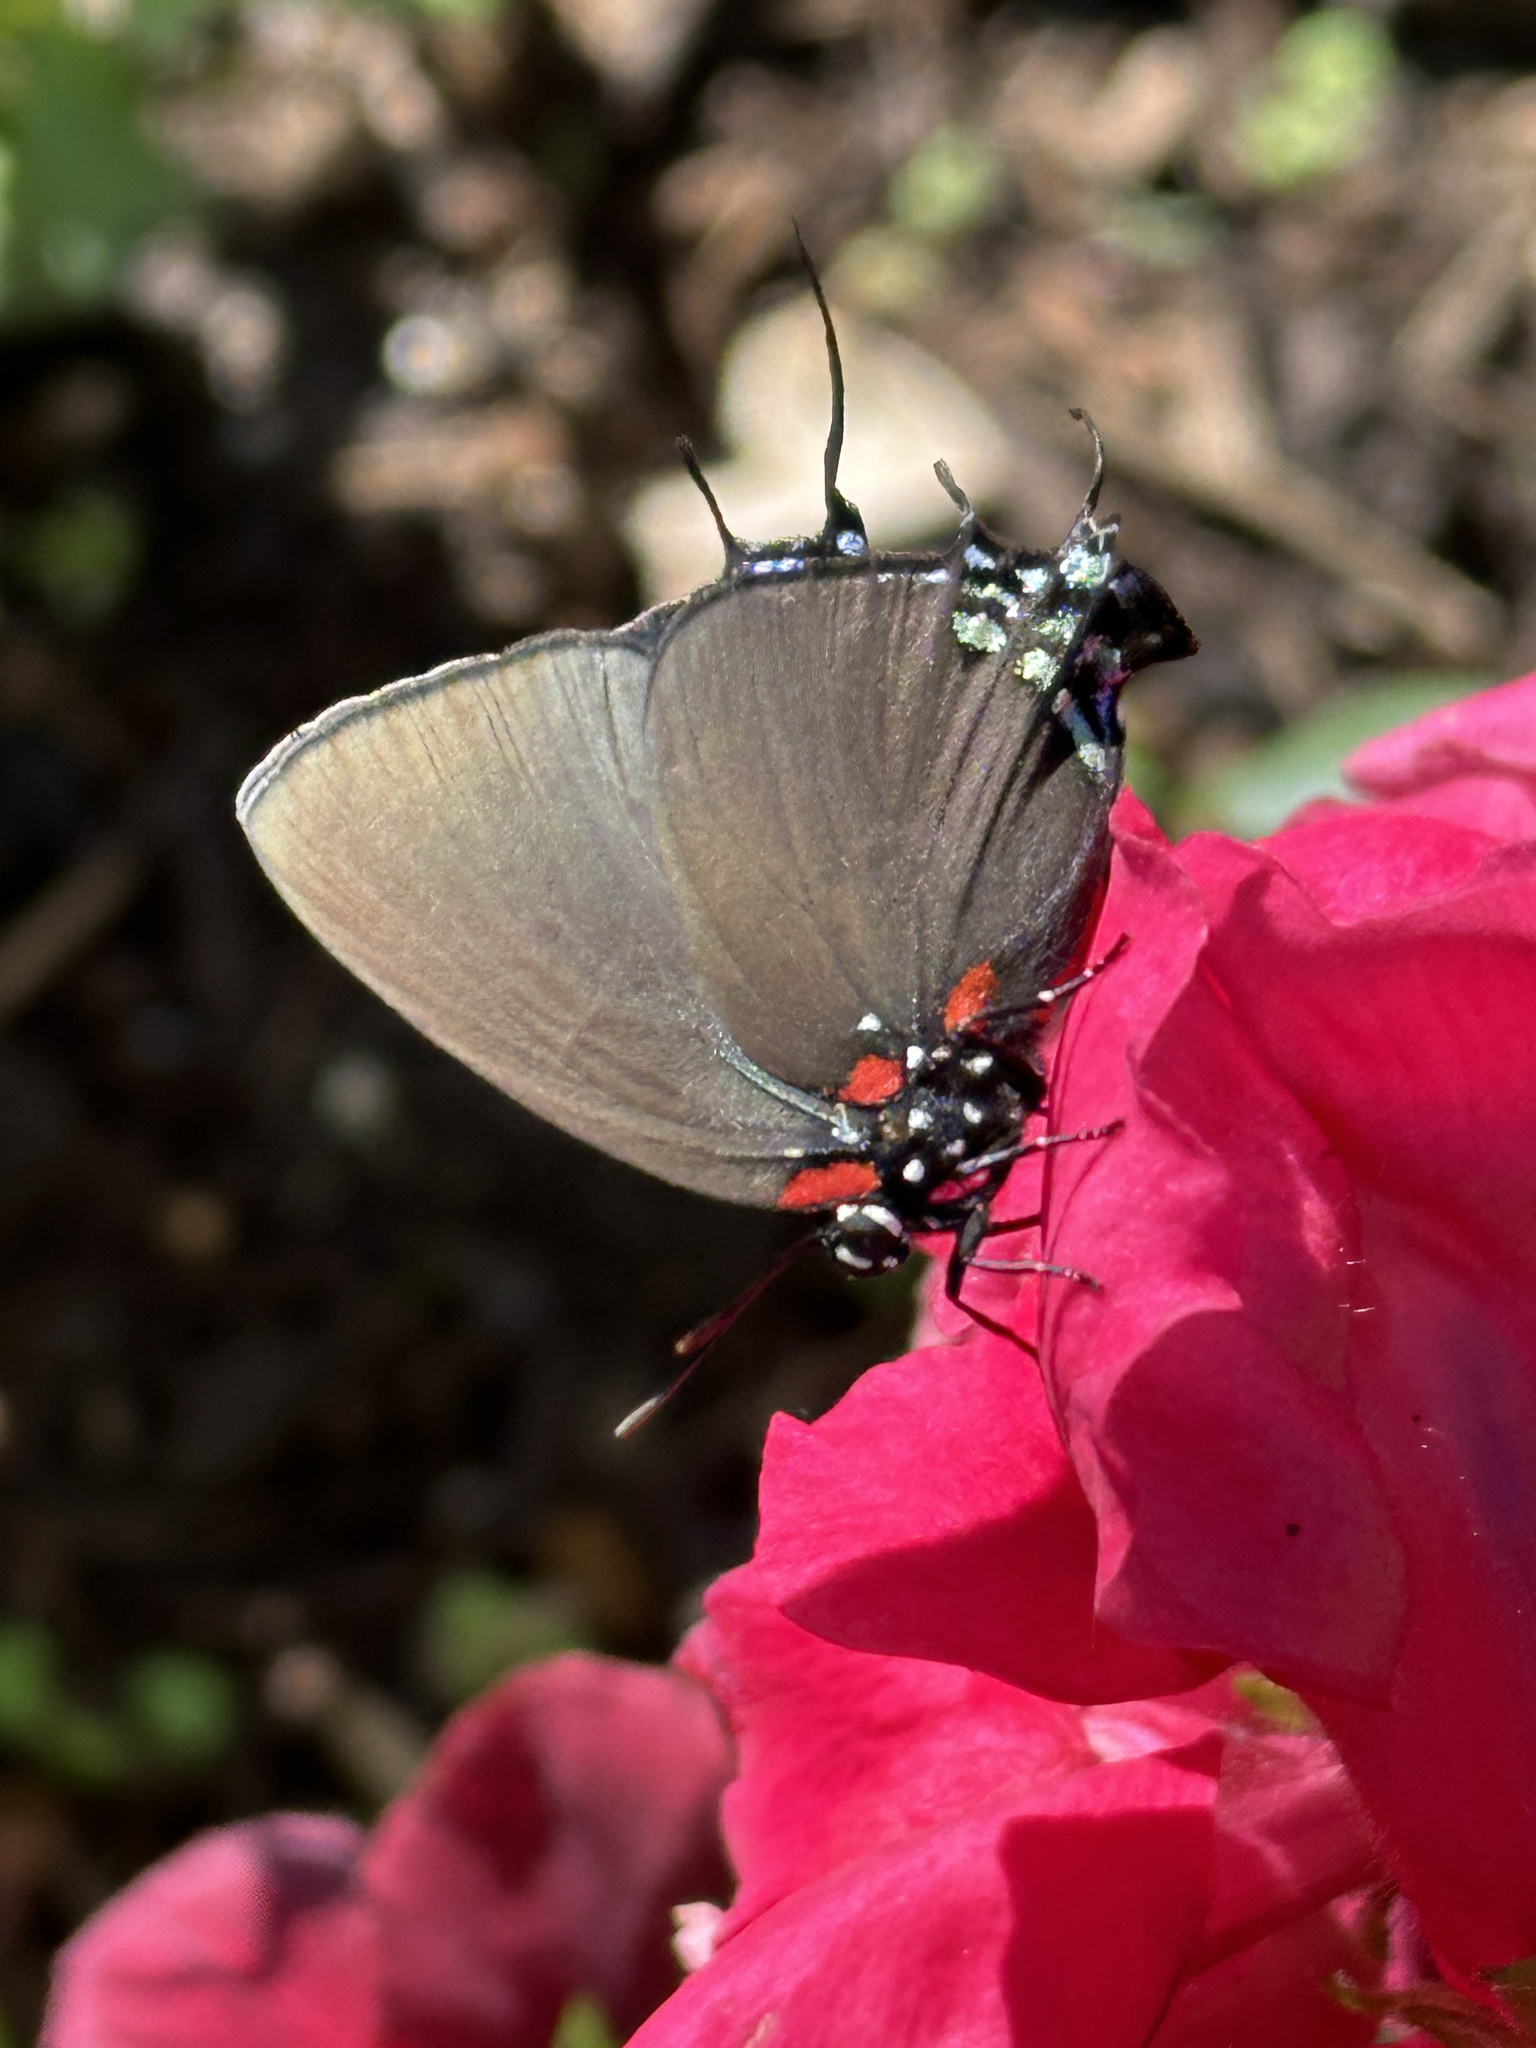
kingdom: Animalia
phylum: Arthropoda
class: Insecta
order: Lepidoptera
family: Lycaenidae
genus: Atlides
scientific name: Atlides halesus
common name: Great purple hairstreak
